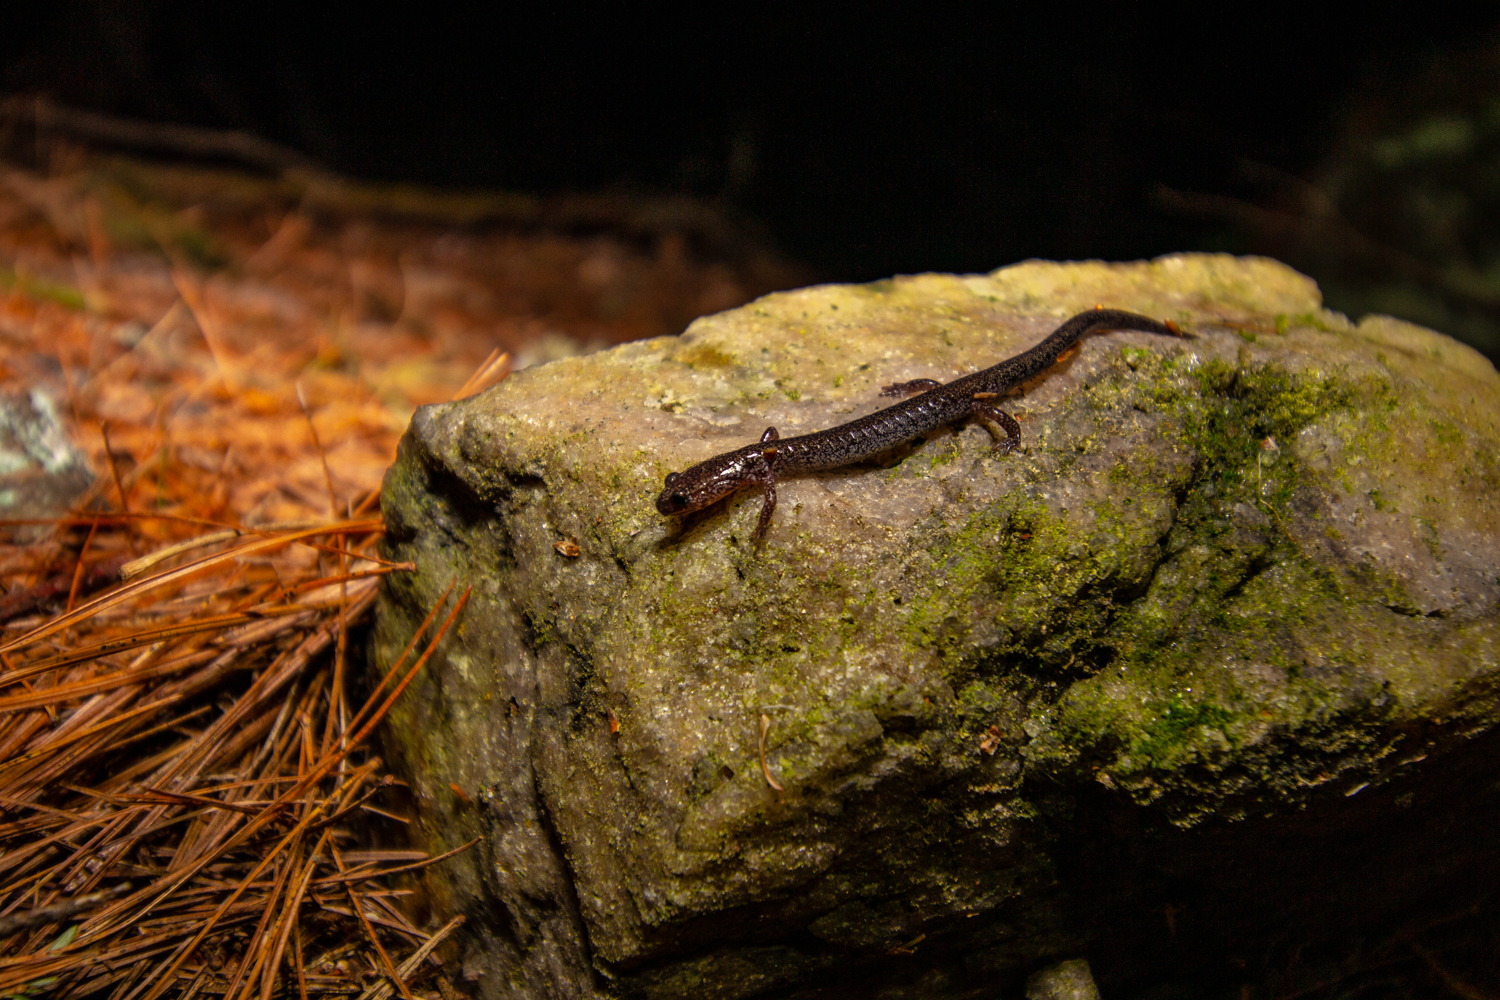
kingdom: Animalia
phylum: Chordata
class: Amphibia
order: Caudata
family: Plethodontidae
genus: Plethodon
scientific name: Plethodon cinereus
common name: Redback salamander
